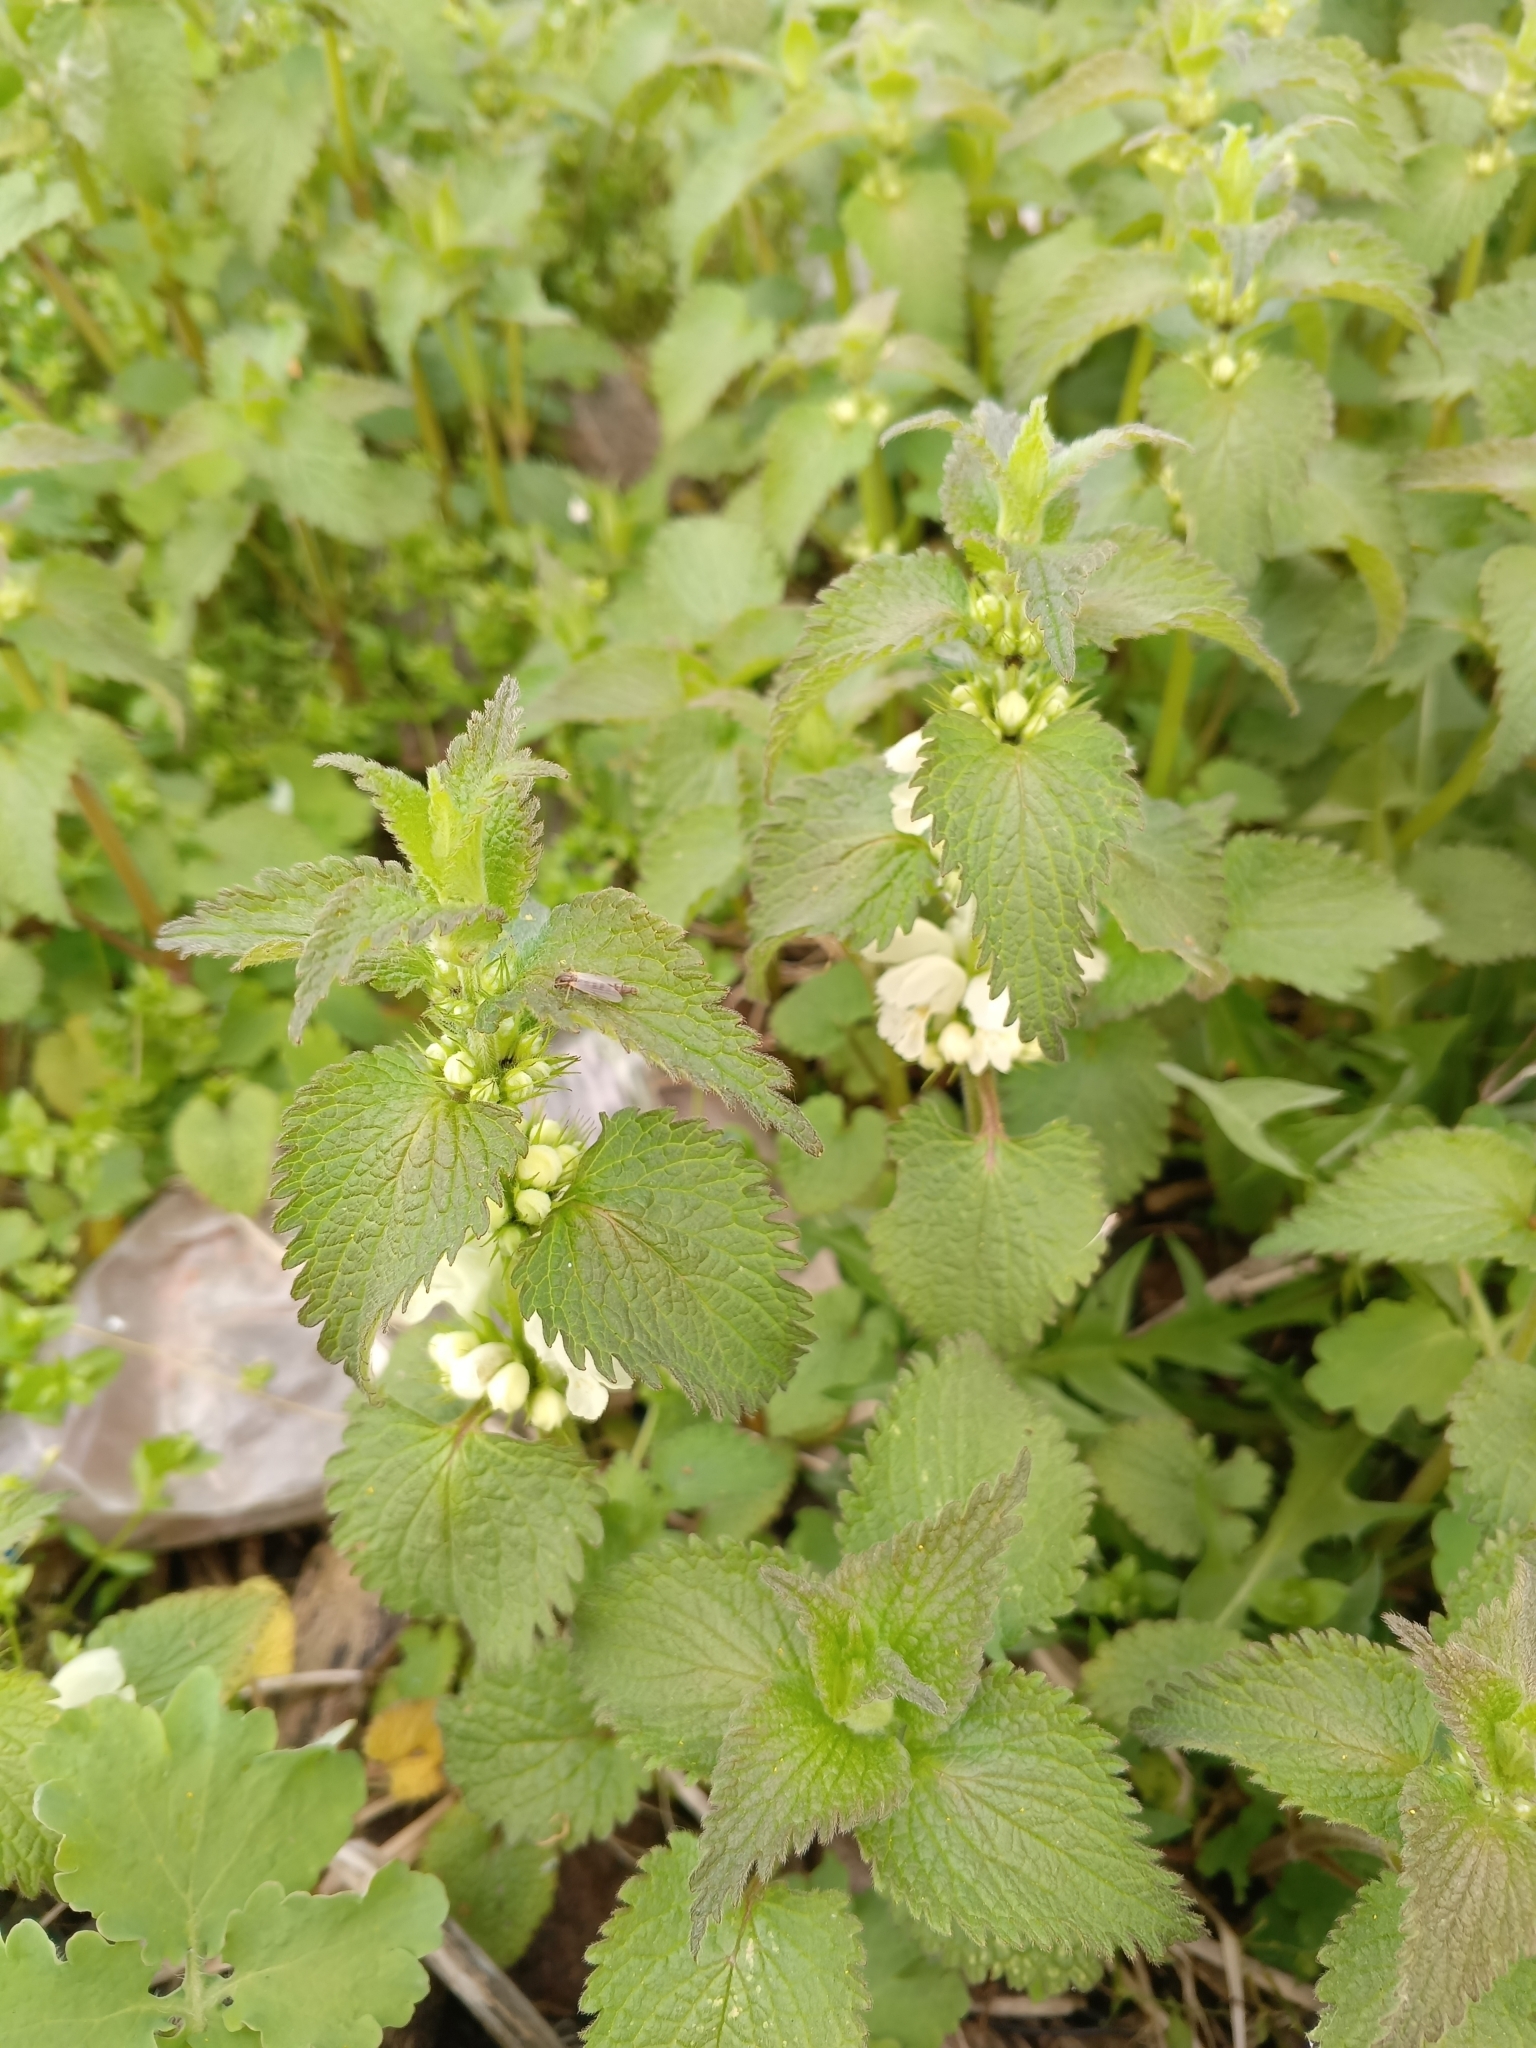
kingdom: Plantae
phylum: Tracheophyta
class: Magnoliopsida
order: Lamiales
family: Lamiaceae
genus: Lamium
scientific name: Lamium album
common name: White dead-nettle
